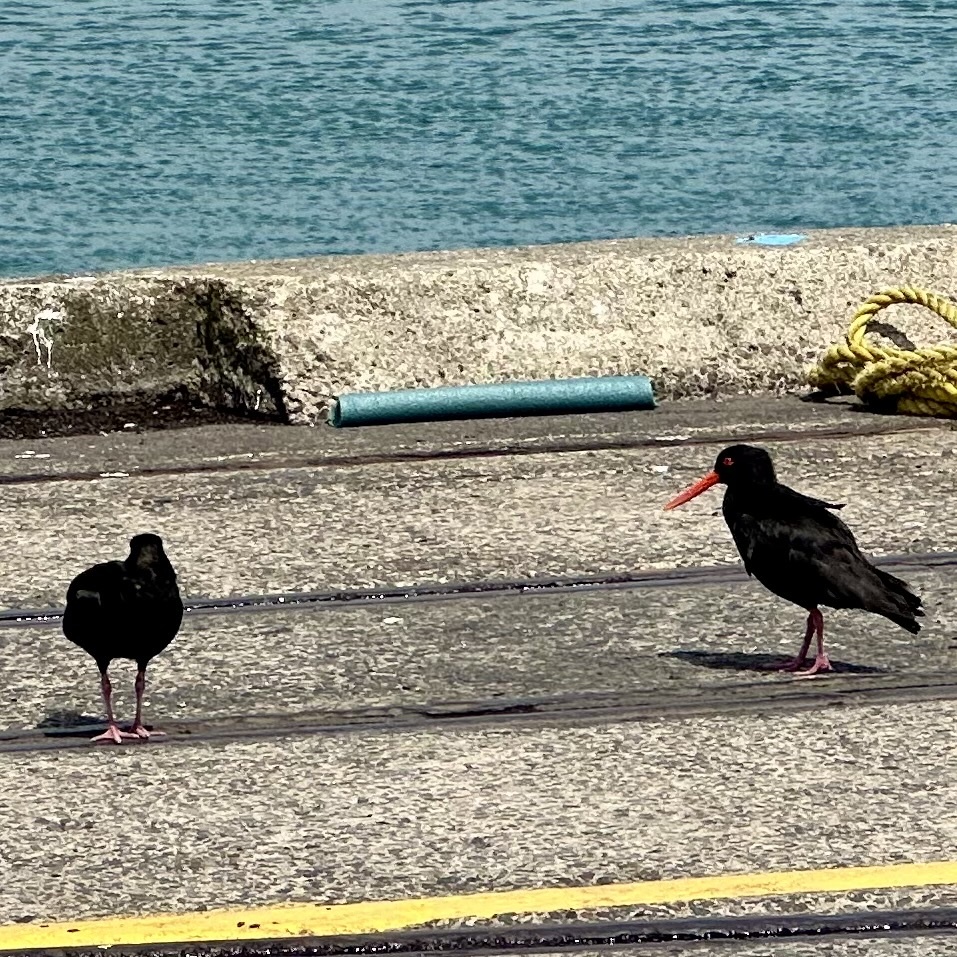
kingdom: Animalia
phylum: Chordata
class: Aves
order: Charadriiformes
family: Haematopodidae
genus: Haematopus
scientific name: Haematopus unicolor
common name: Variable oystercatcher
